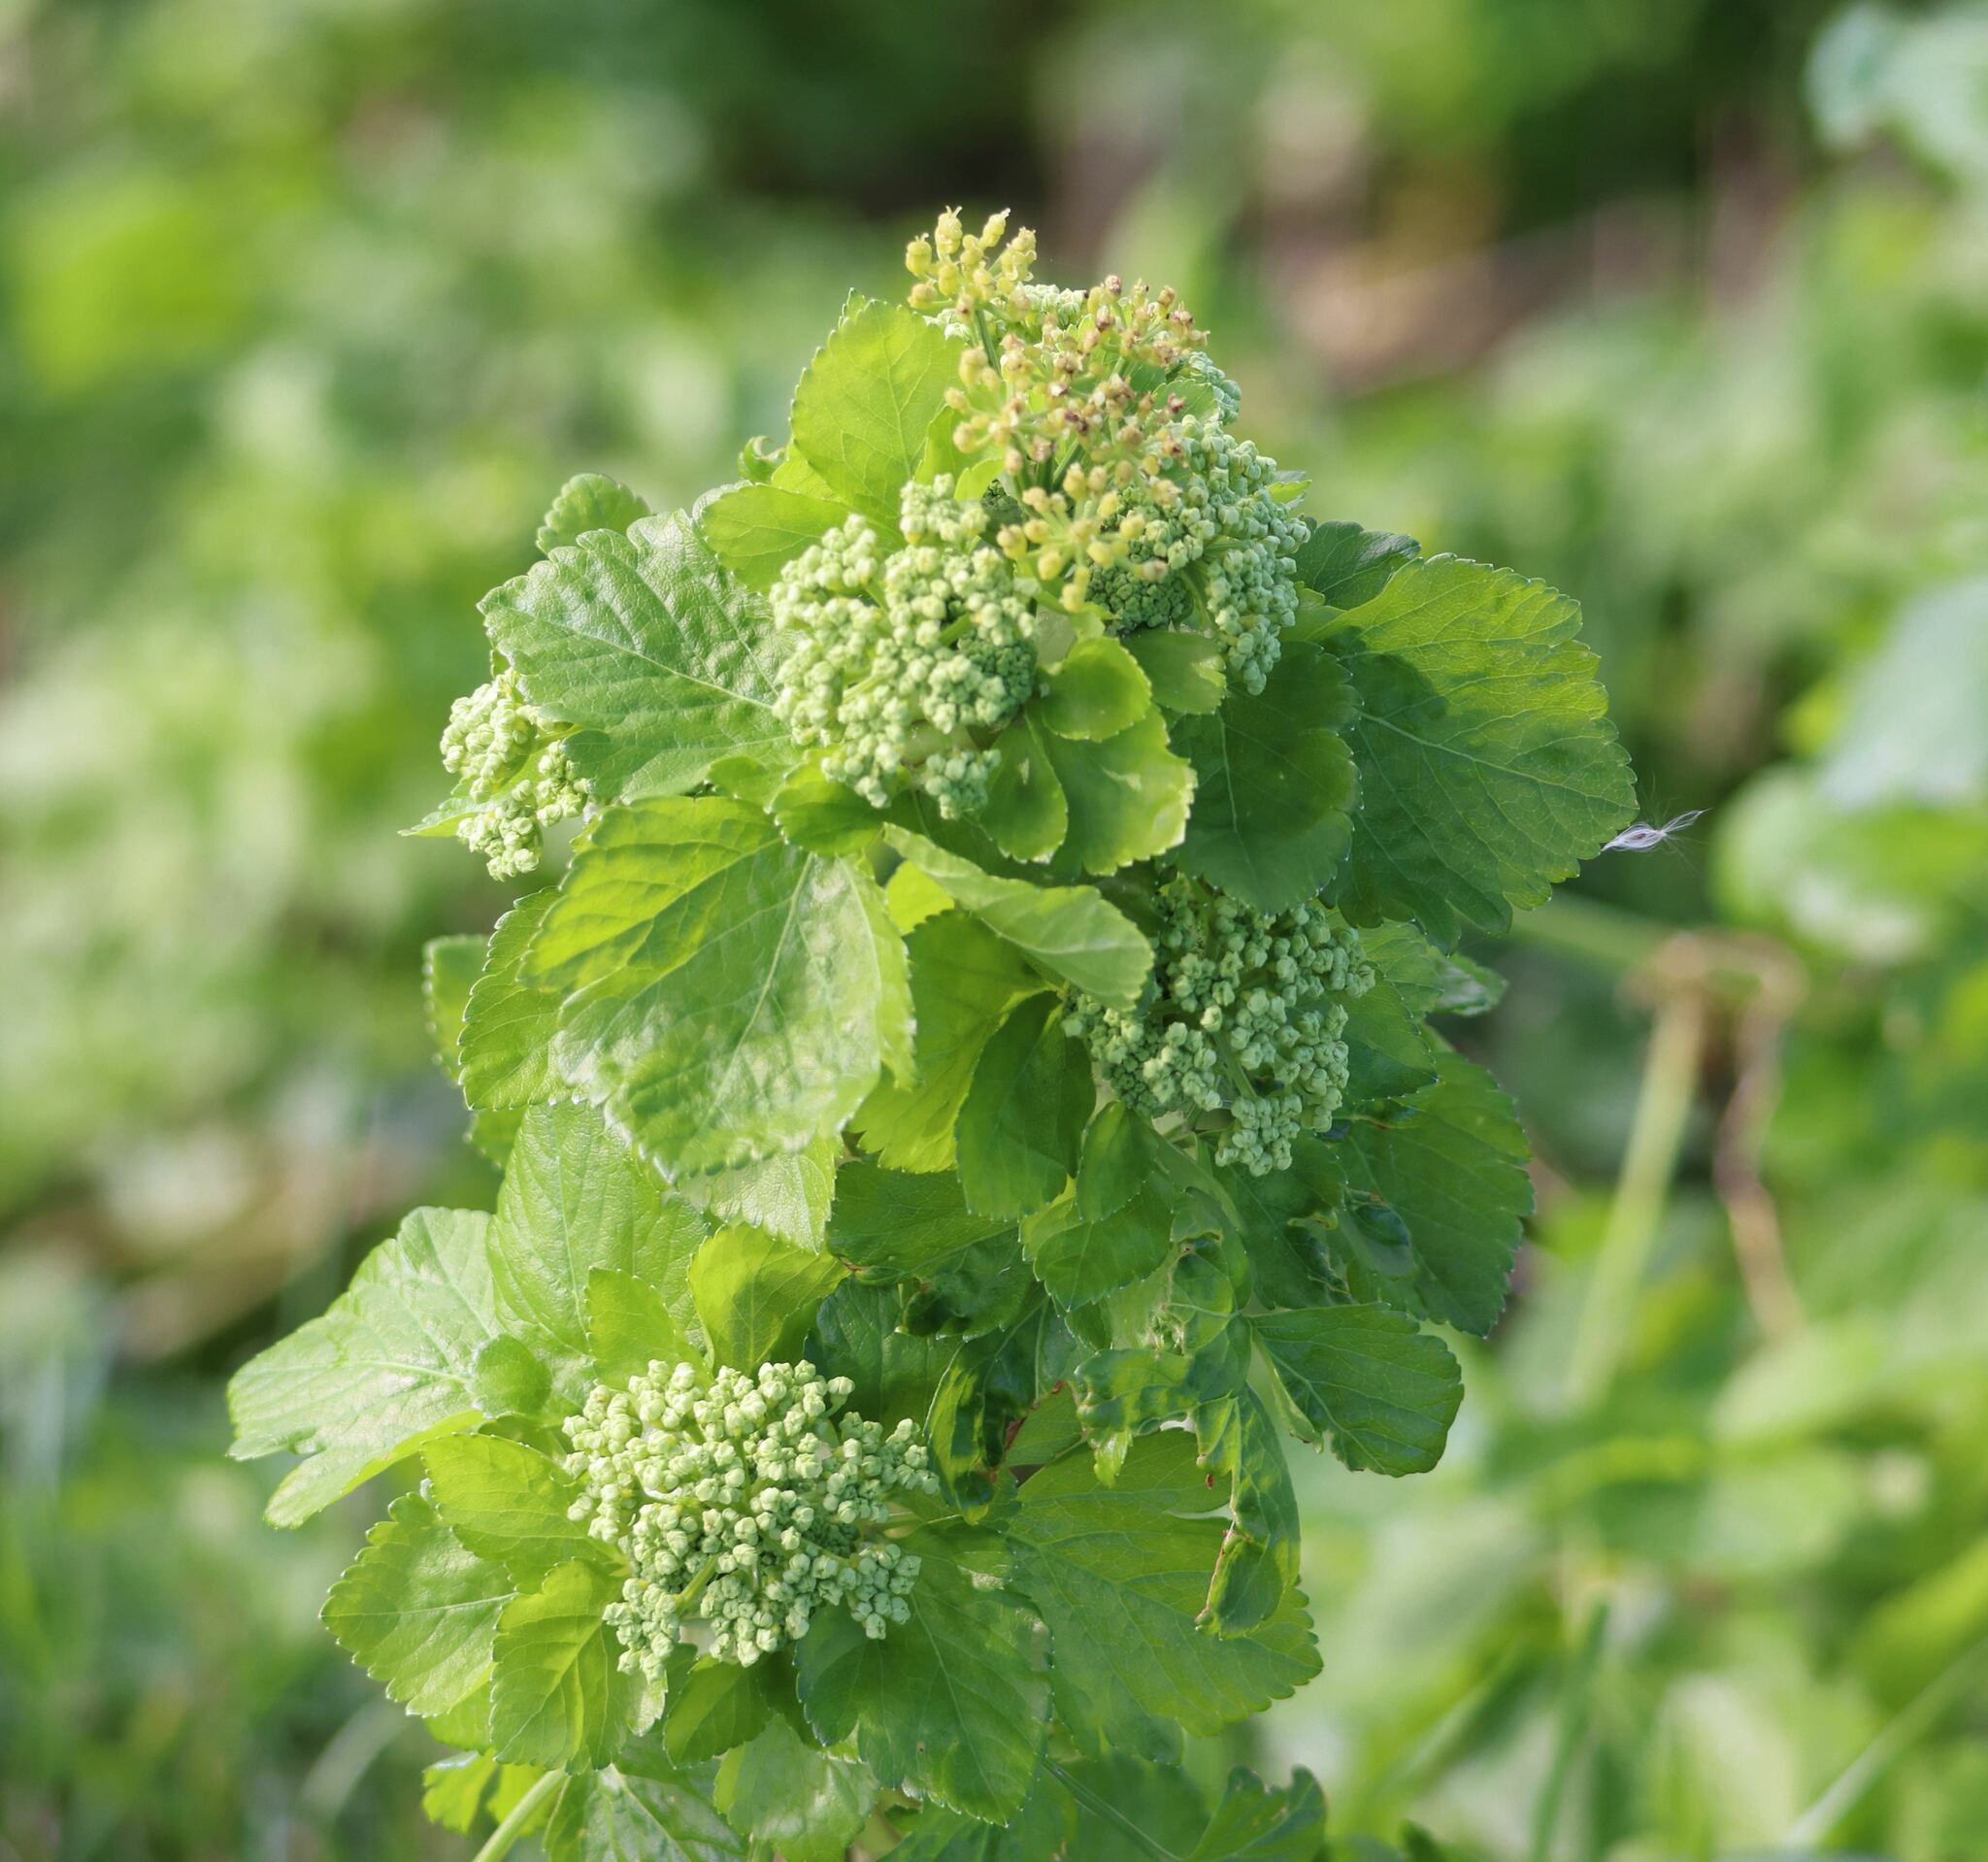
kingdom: Plantae
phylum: Tracheophyta
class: Magnoliopsida
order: Apiales
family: Apiaceae
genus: Smyrnium
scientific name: Smyrnium olusatrum
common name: Alexanders
